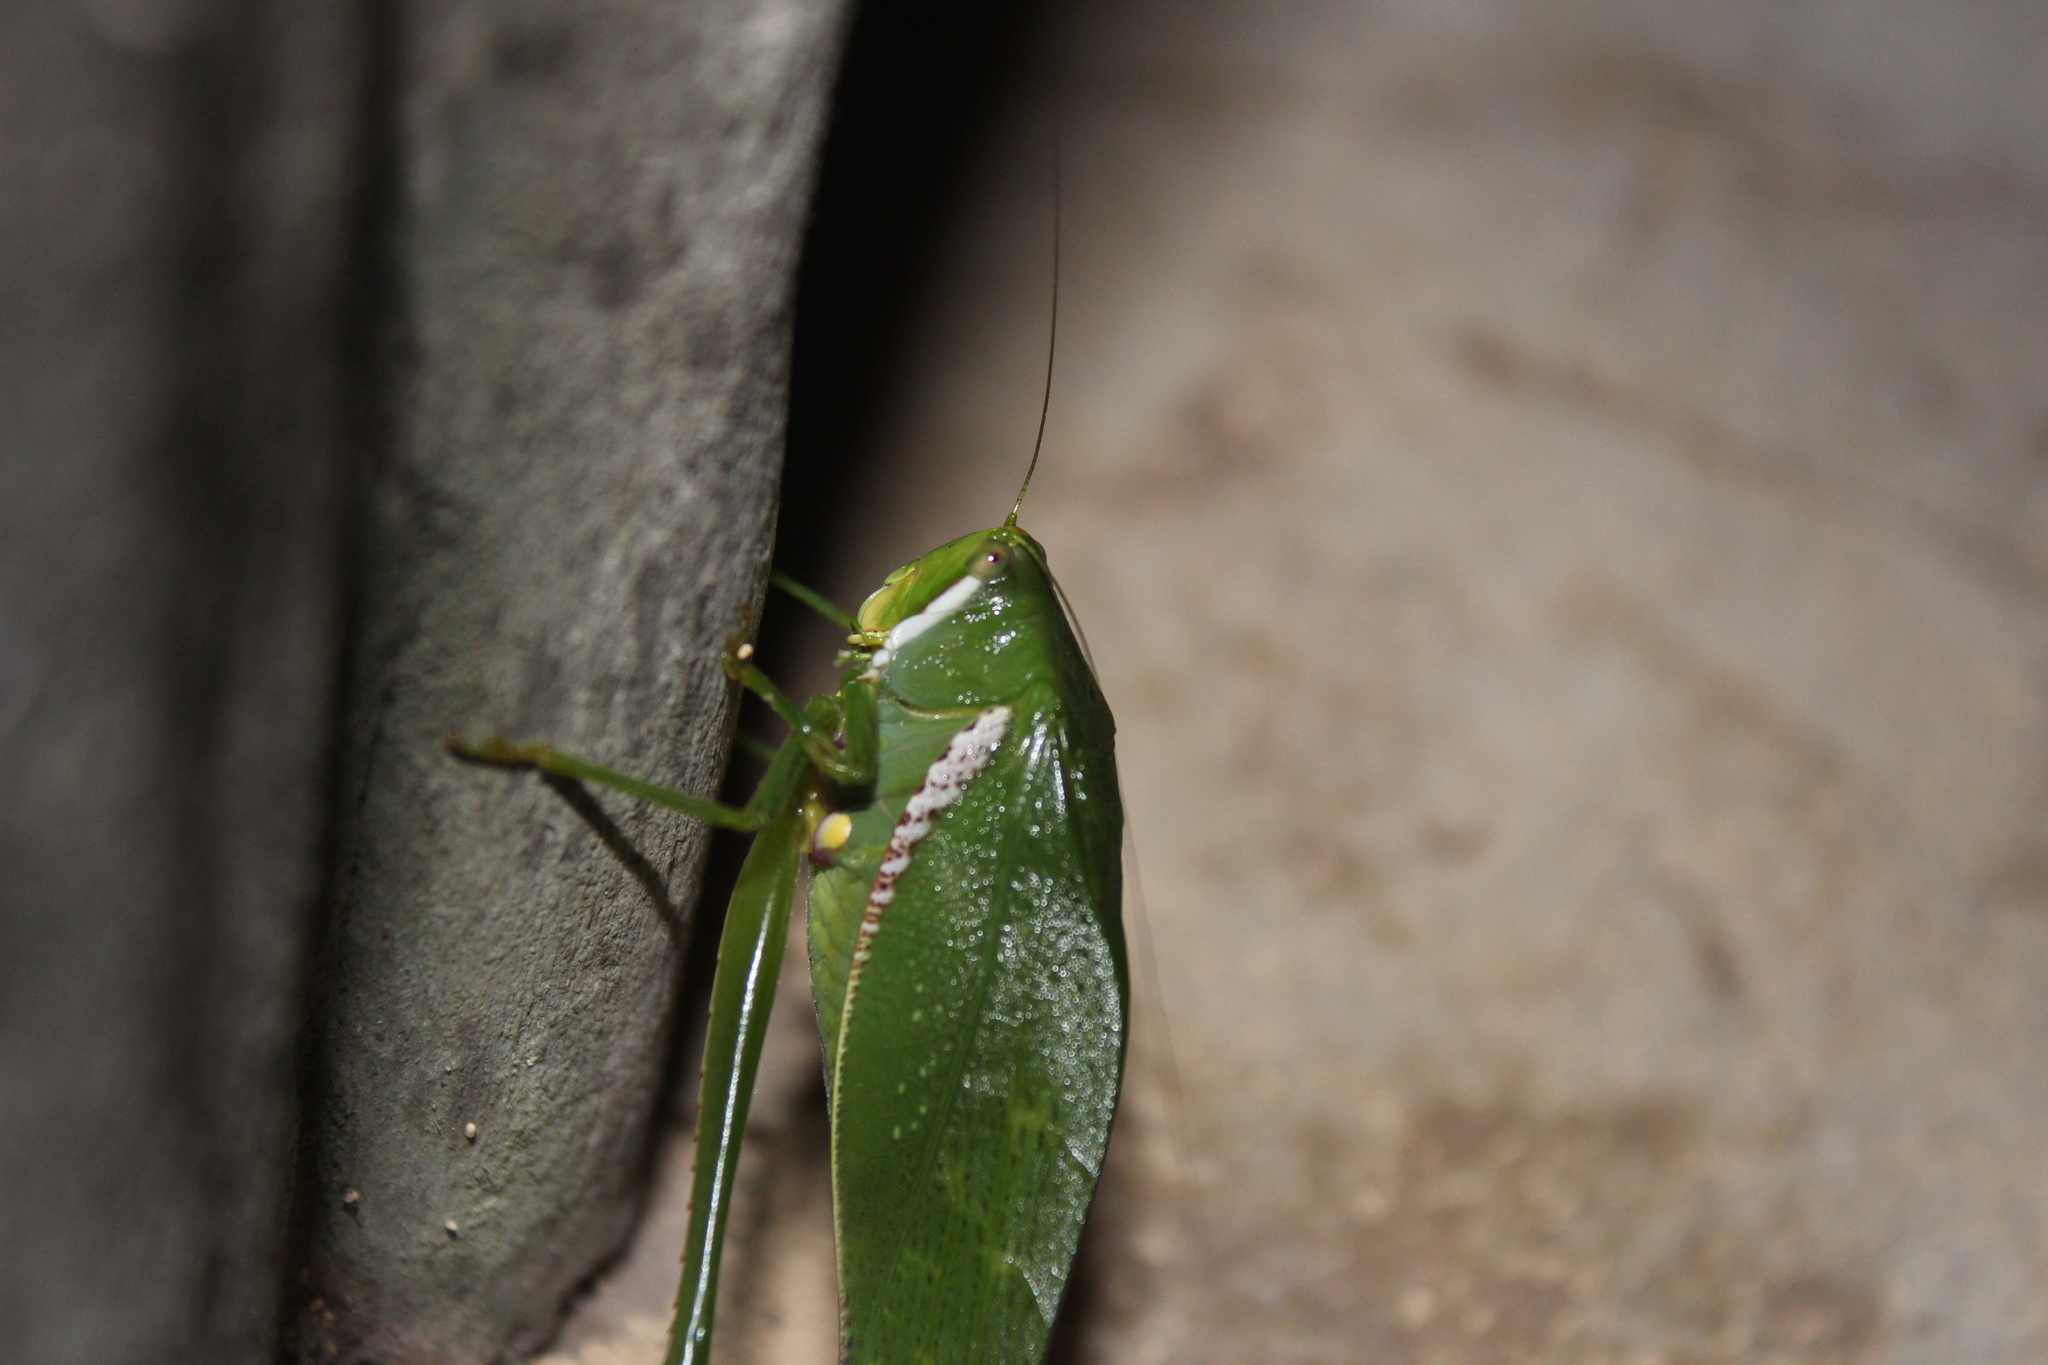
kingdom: Animalia
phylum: Arthropoda
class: Insecta
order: Orthoptera
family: Tettigoniidae
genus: Philophyllia
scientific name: Philophyllia guttulata
